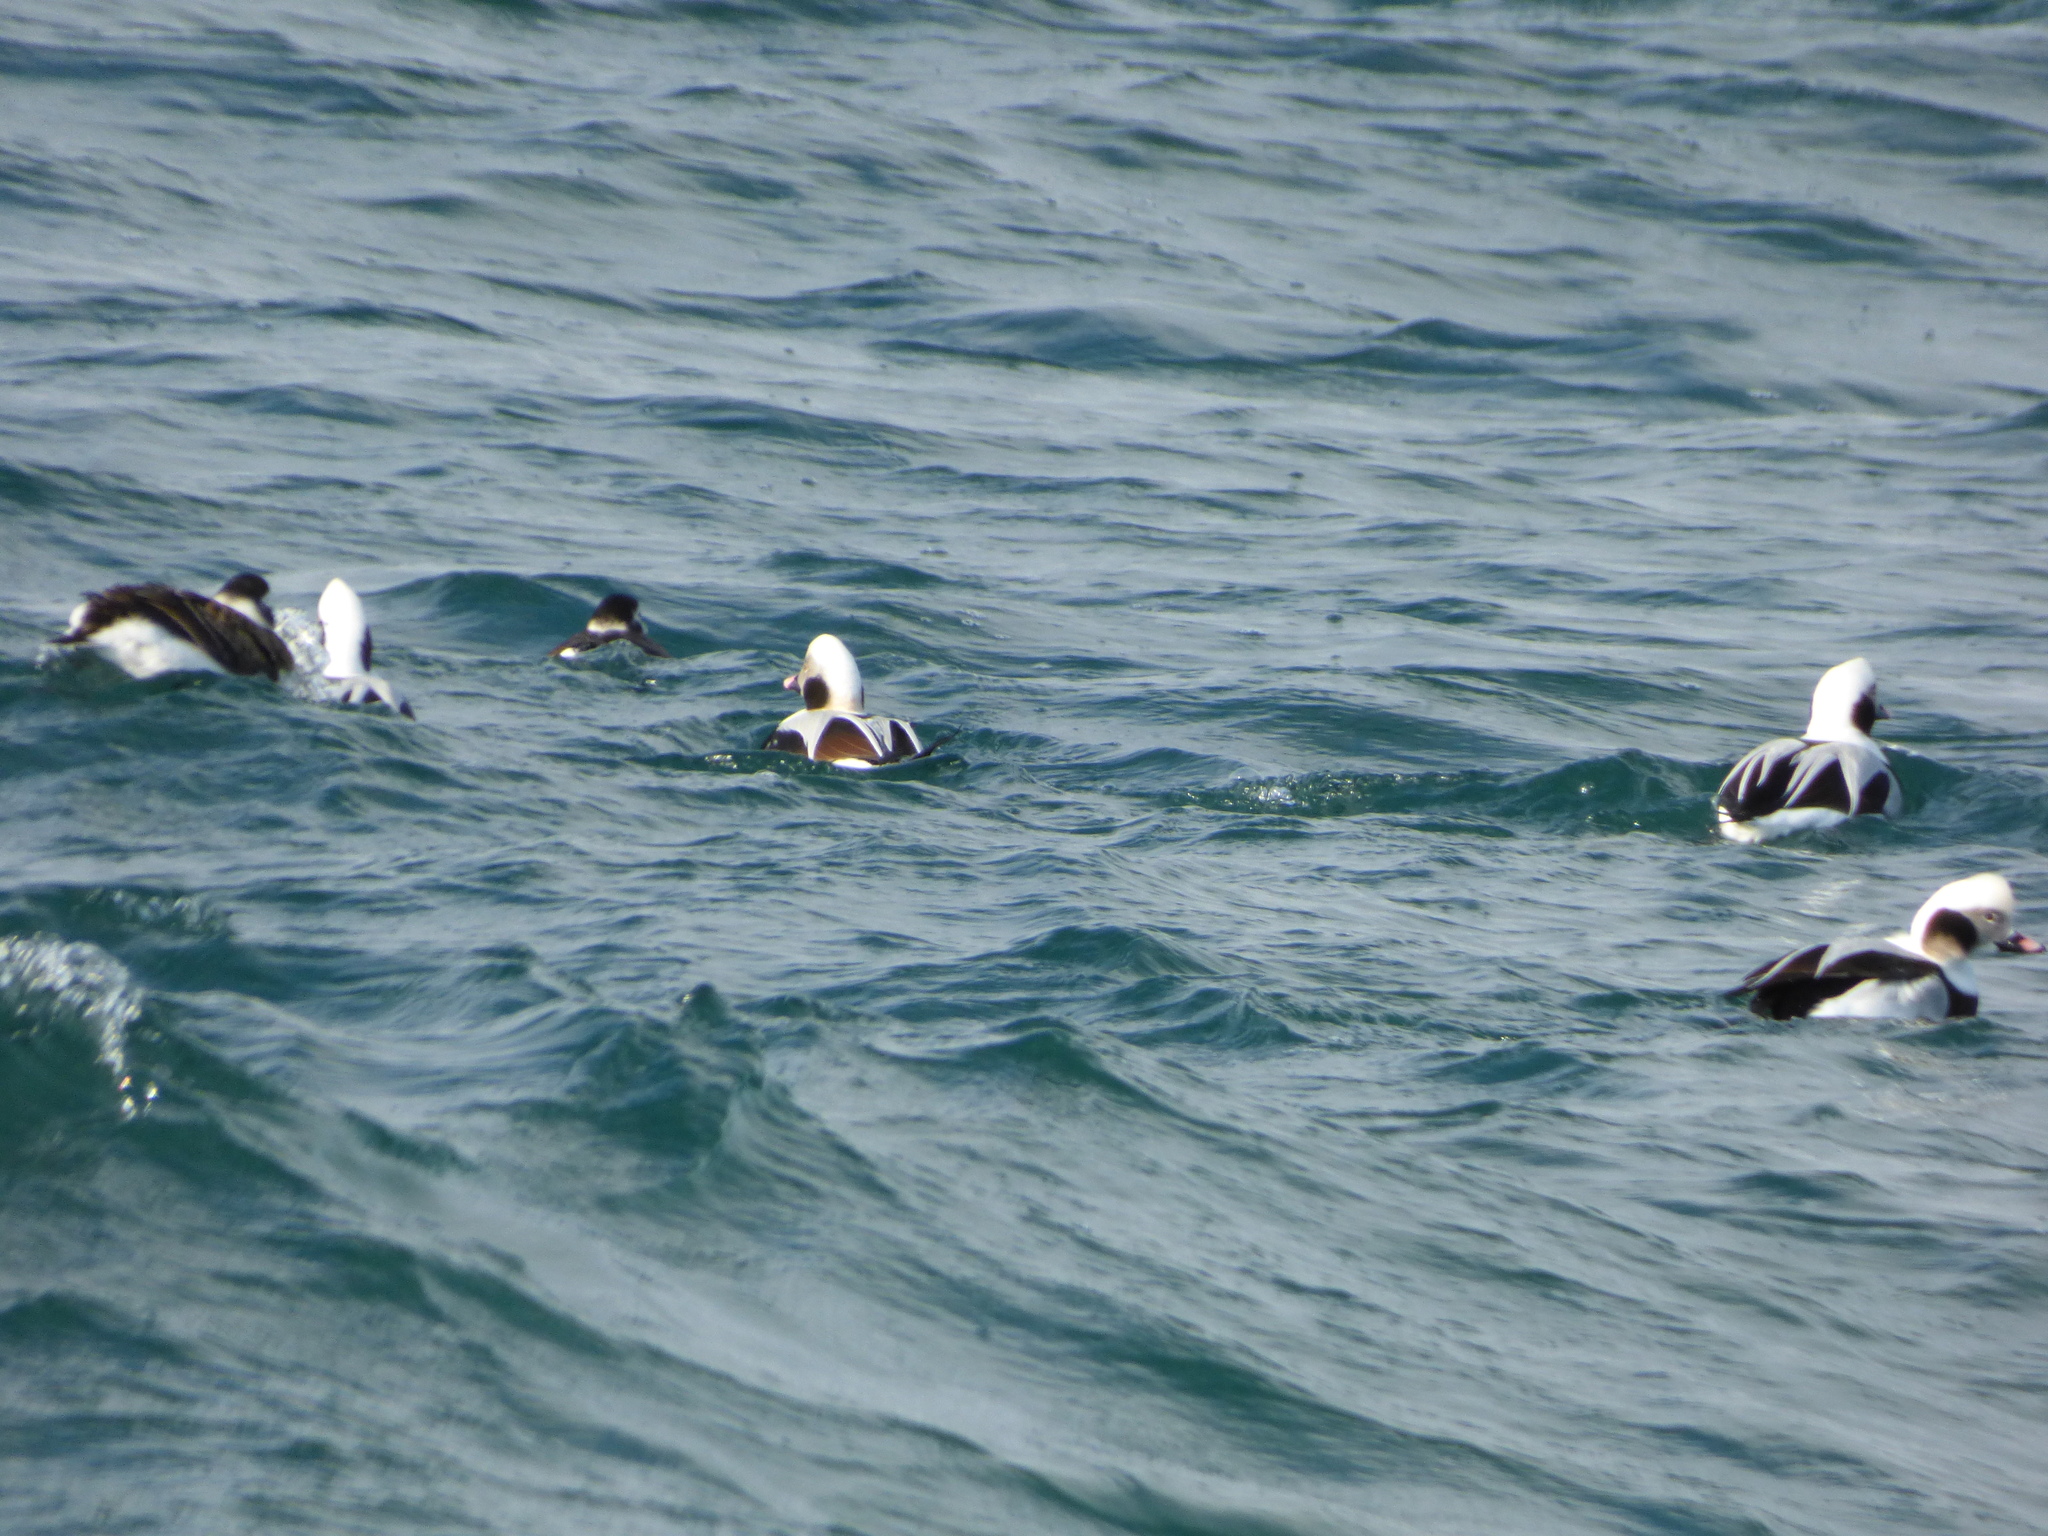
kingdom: Animalia
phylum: Chordata
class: Aves
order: Anseriformes
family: Anatidae
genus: Clangula
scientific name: Clangula hyemalis
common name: Long-tailed duck
